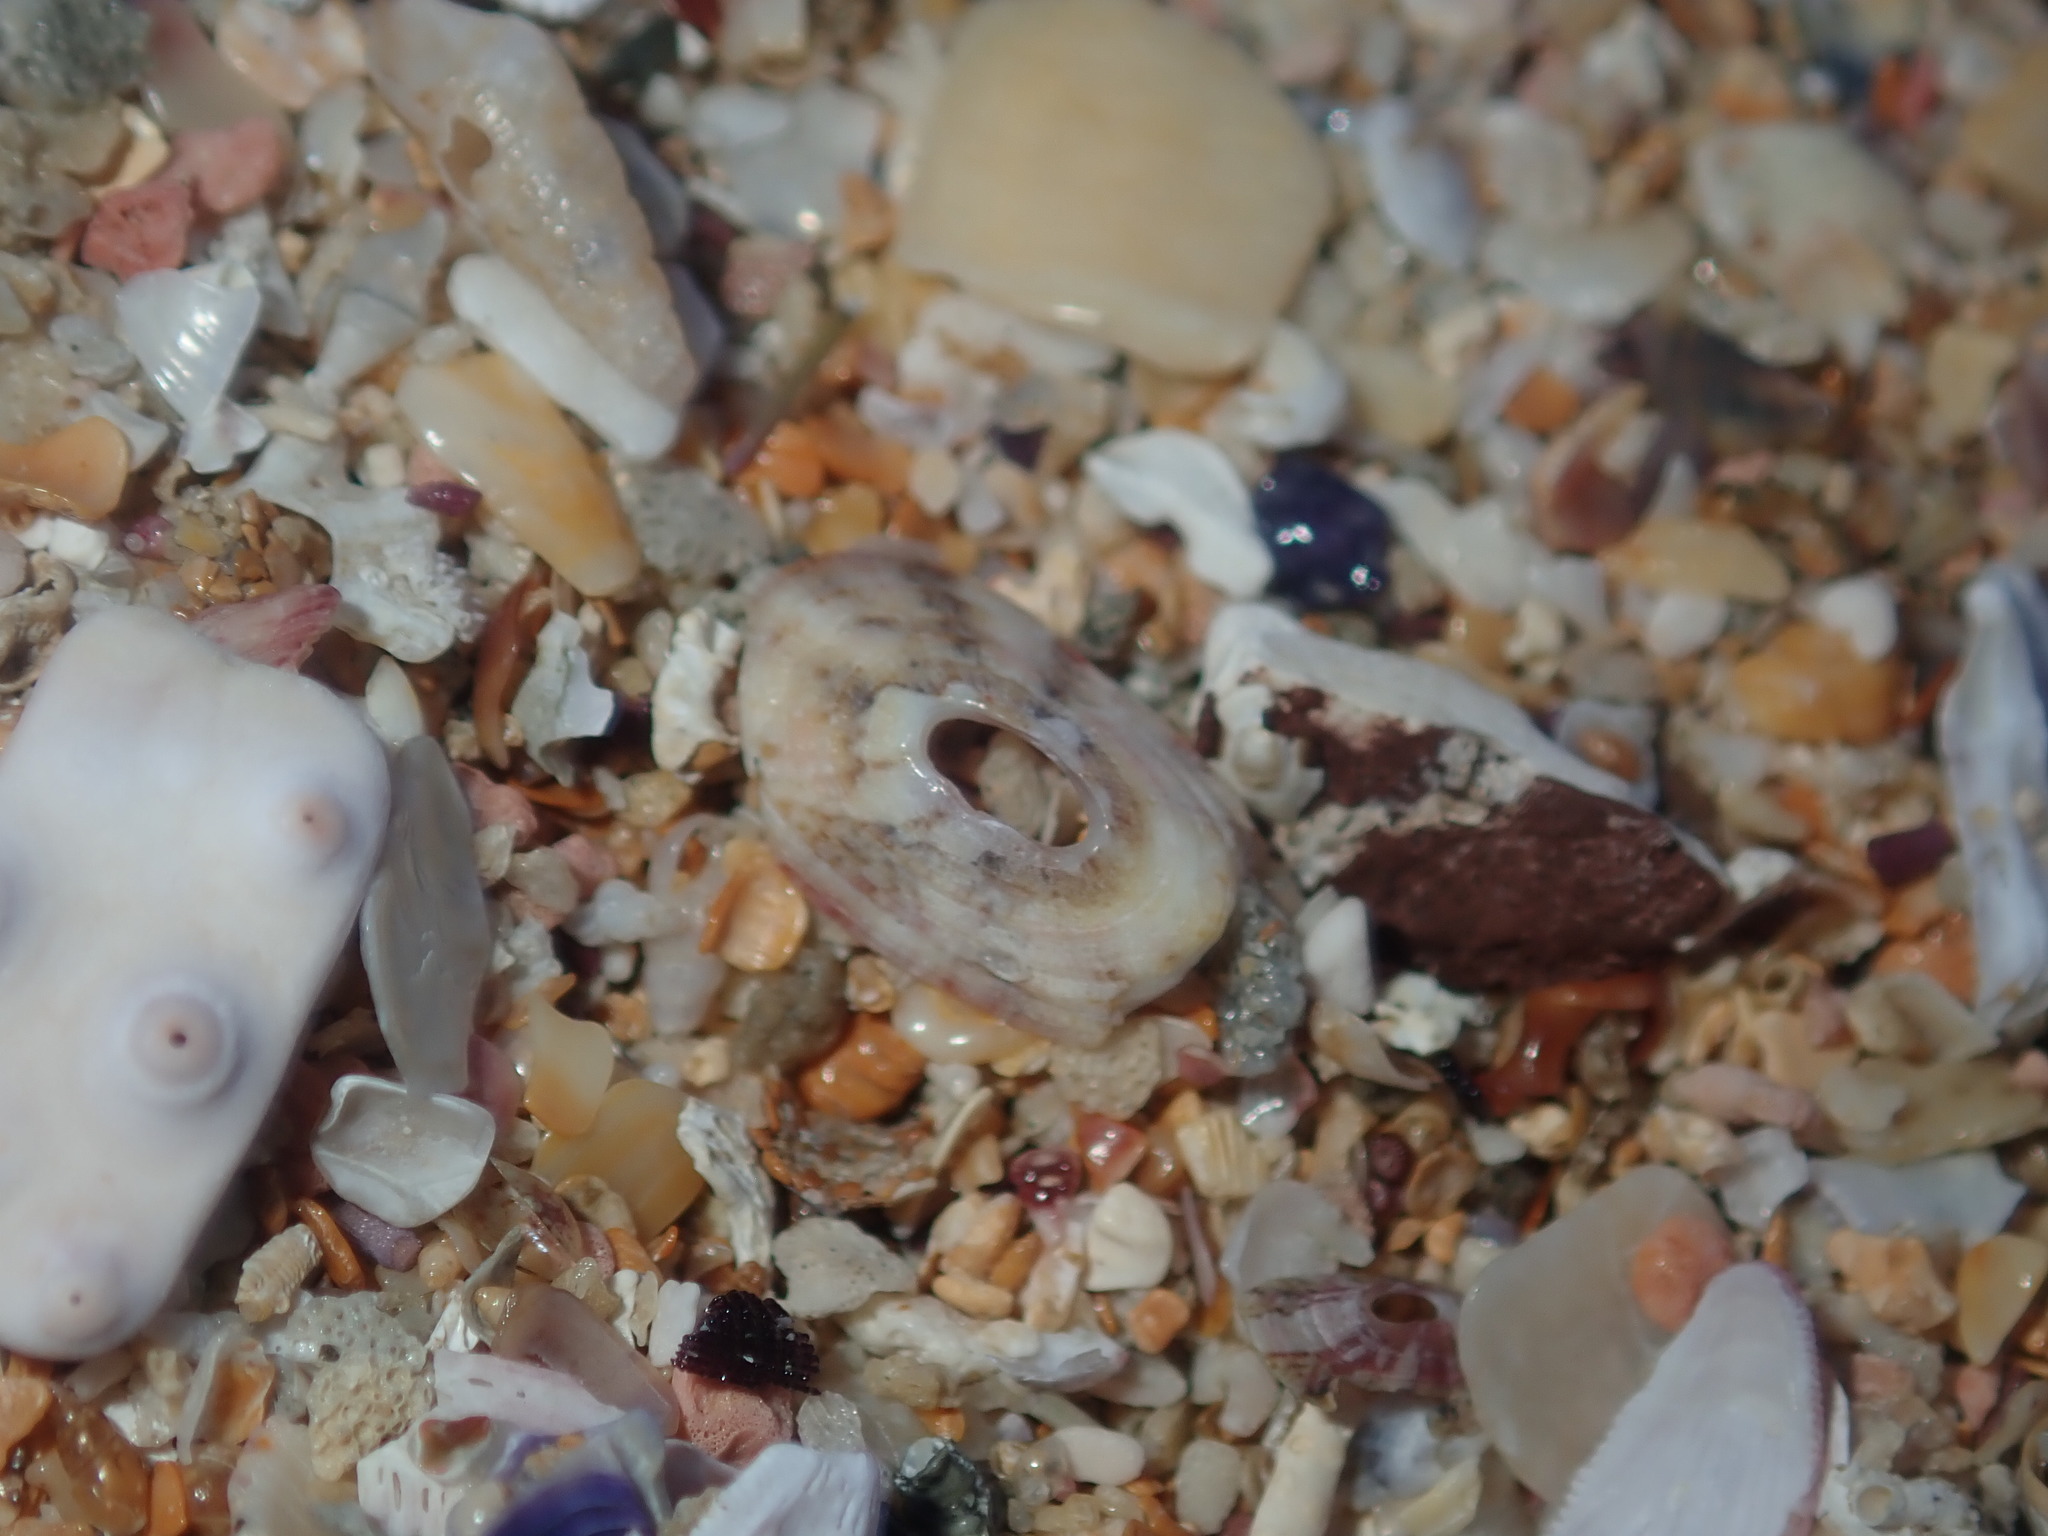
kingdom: Animalia
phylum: Mollusca
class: Gastropoda
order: Lepetellida
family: Fissurellidae
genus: Amblychilepas
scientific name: Amblychilepas nigrita
